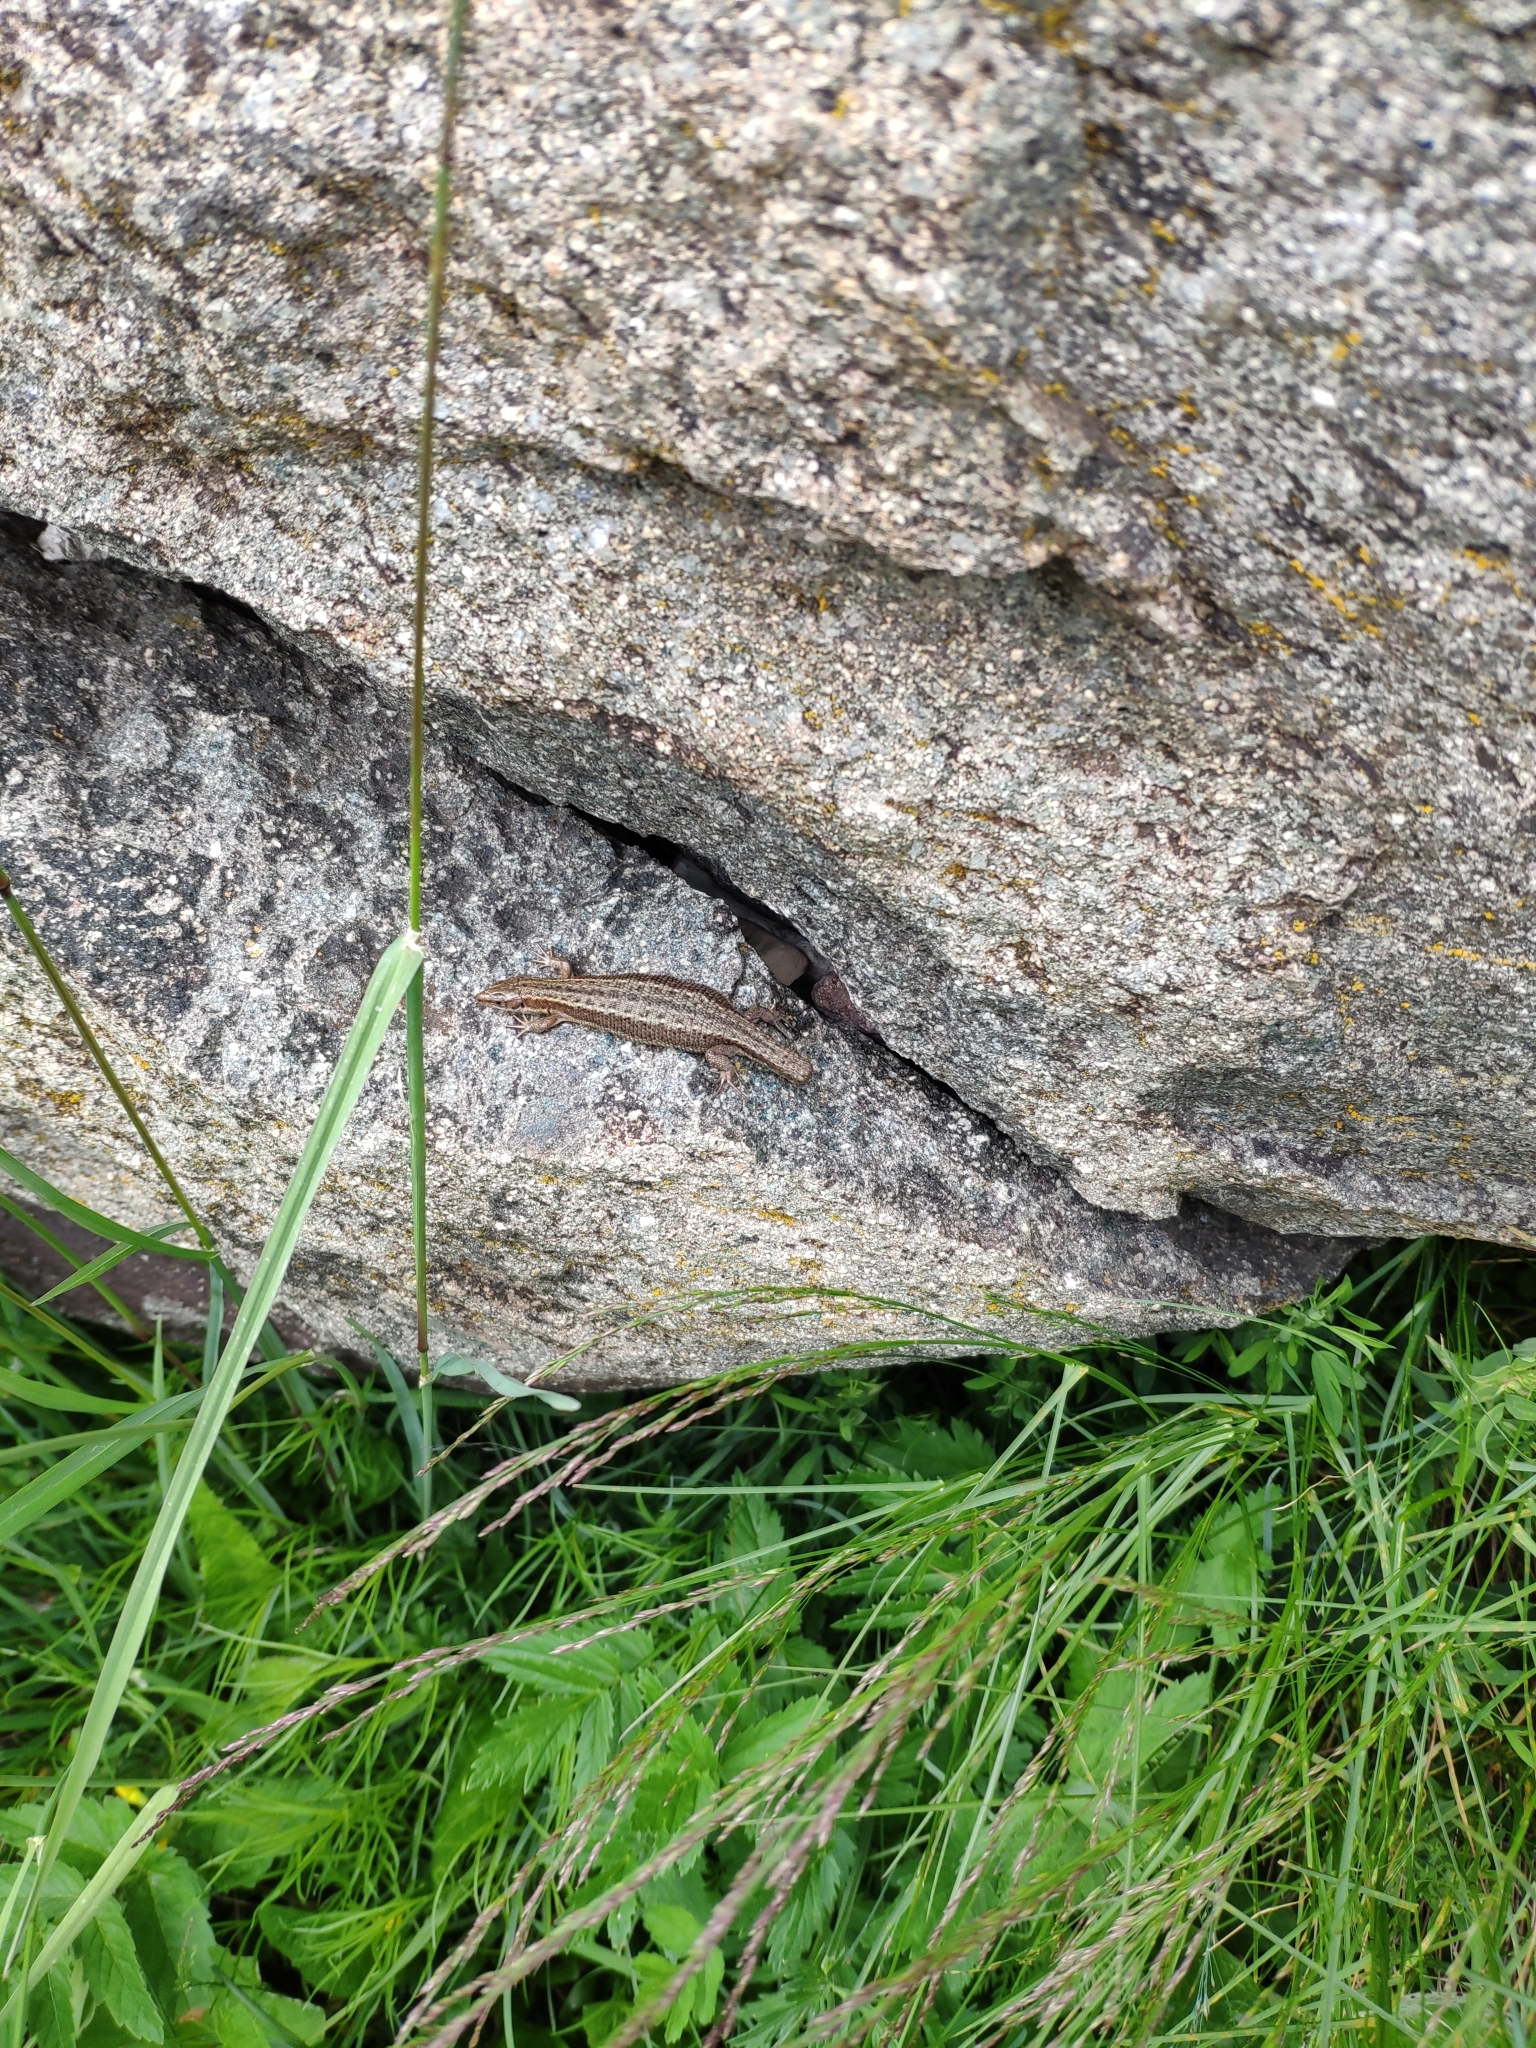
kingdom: Animalia
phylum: Chordata
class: Squamata
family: Lacertidae
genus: Zootoca
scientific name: Zootoca vivipara
